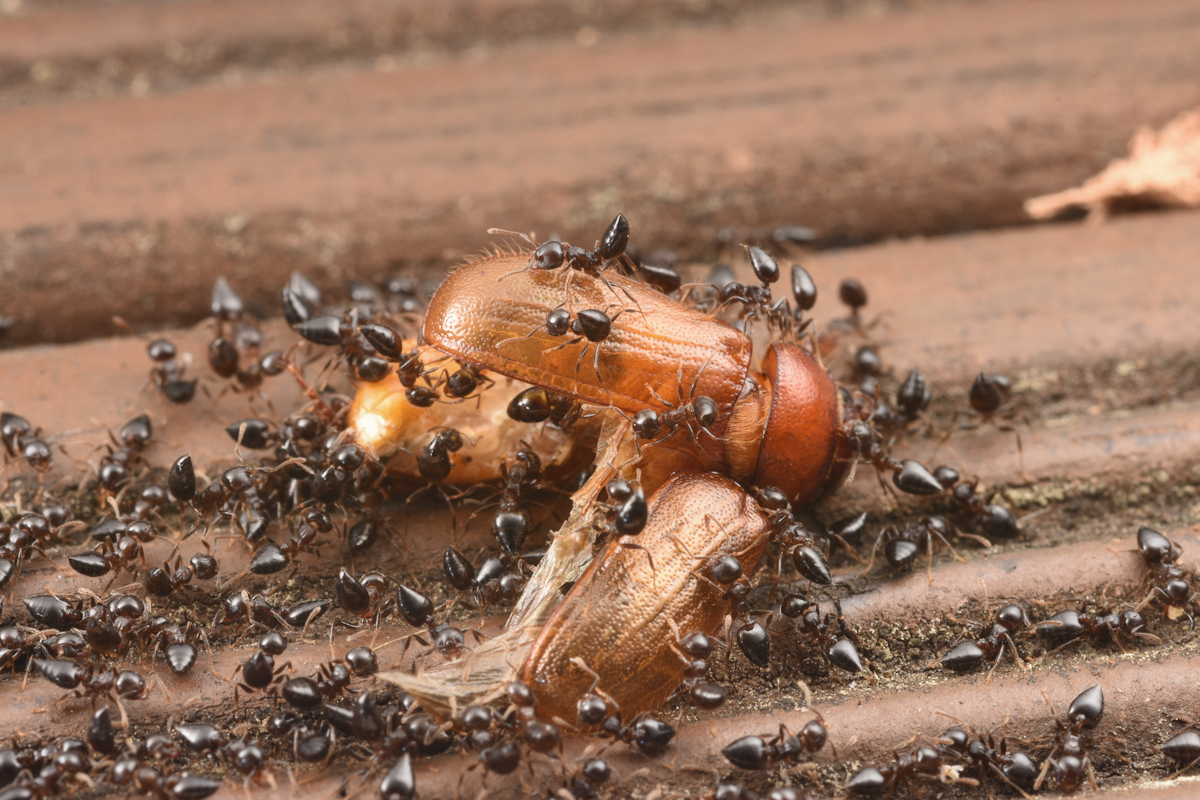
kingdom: Animalia
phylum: Arthropoda
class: Insecta
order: Hymenoptera
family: Formicidae
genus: Crematogaster
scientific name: Crematogaster teranishii
